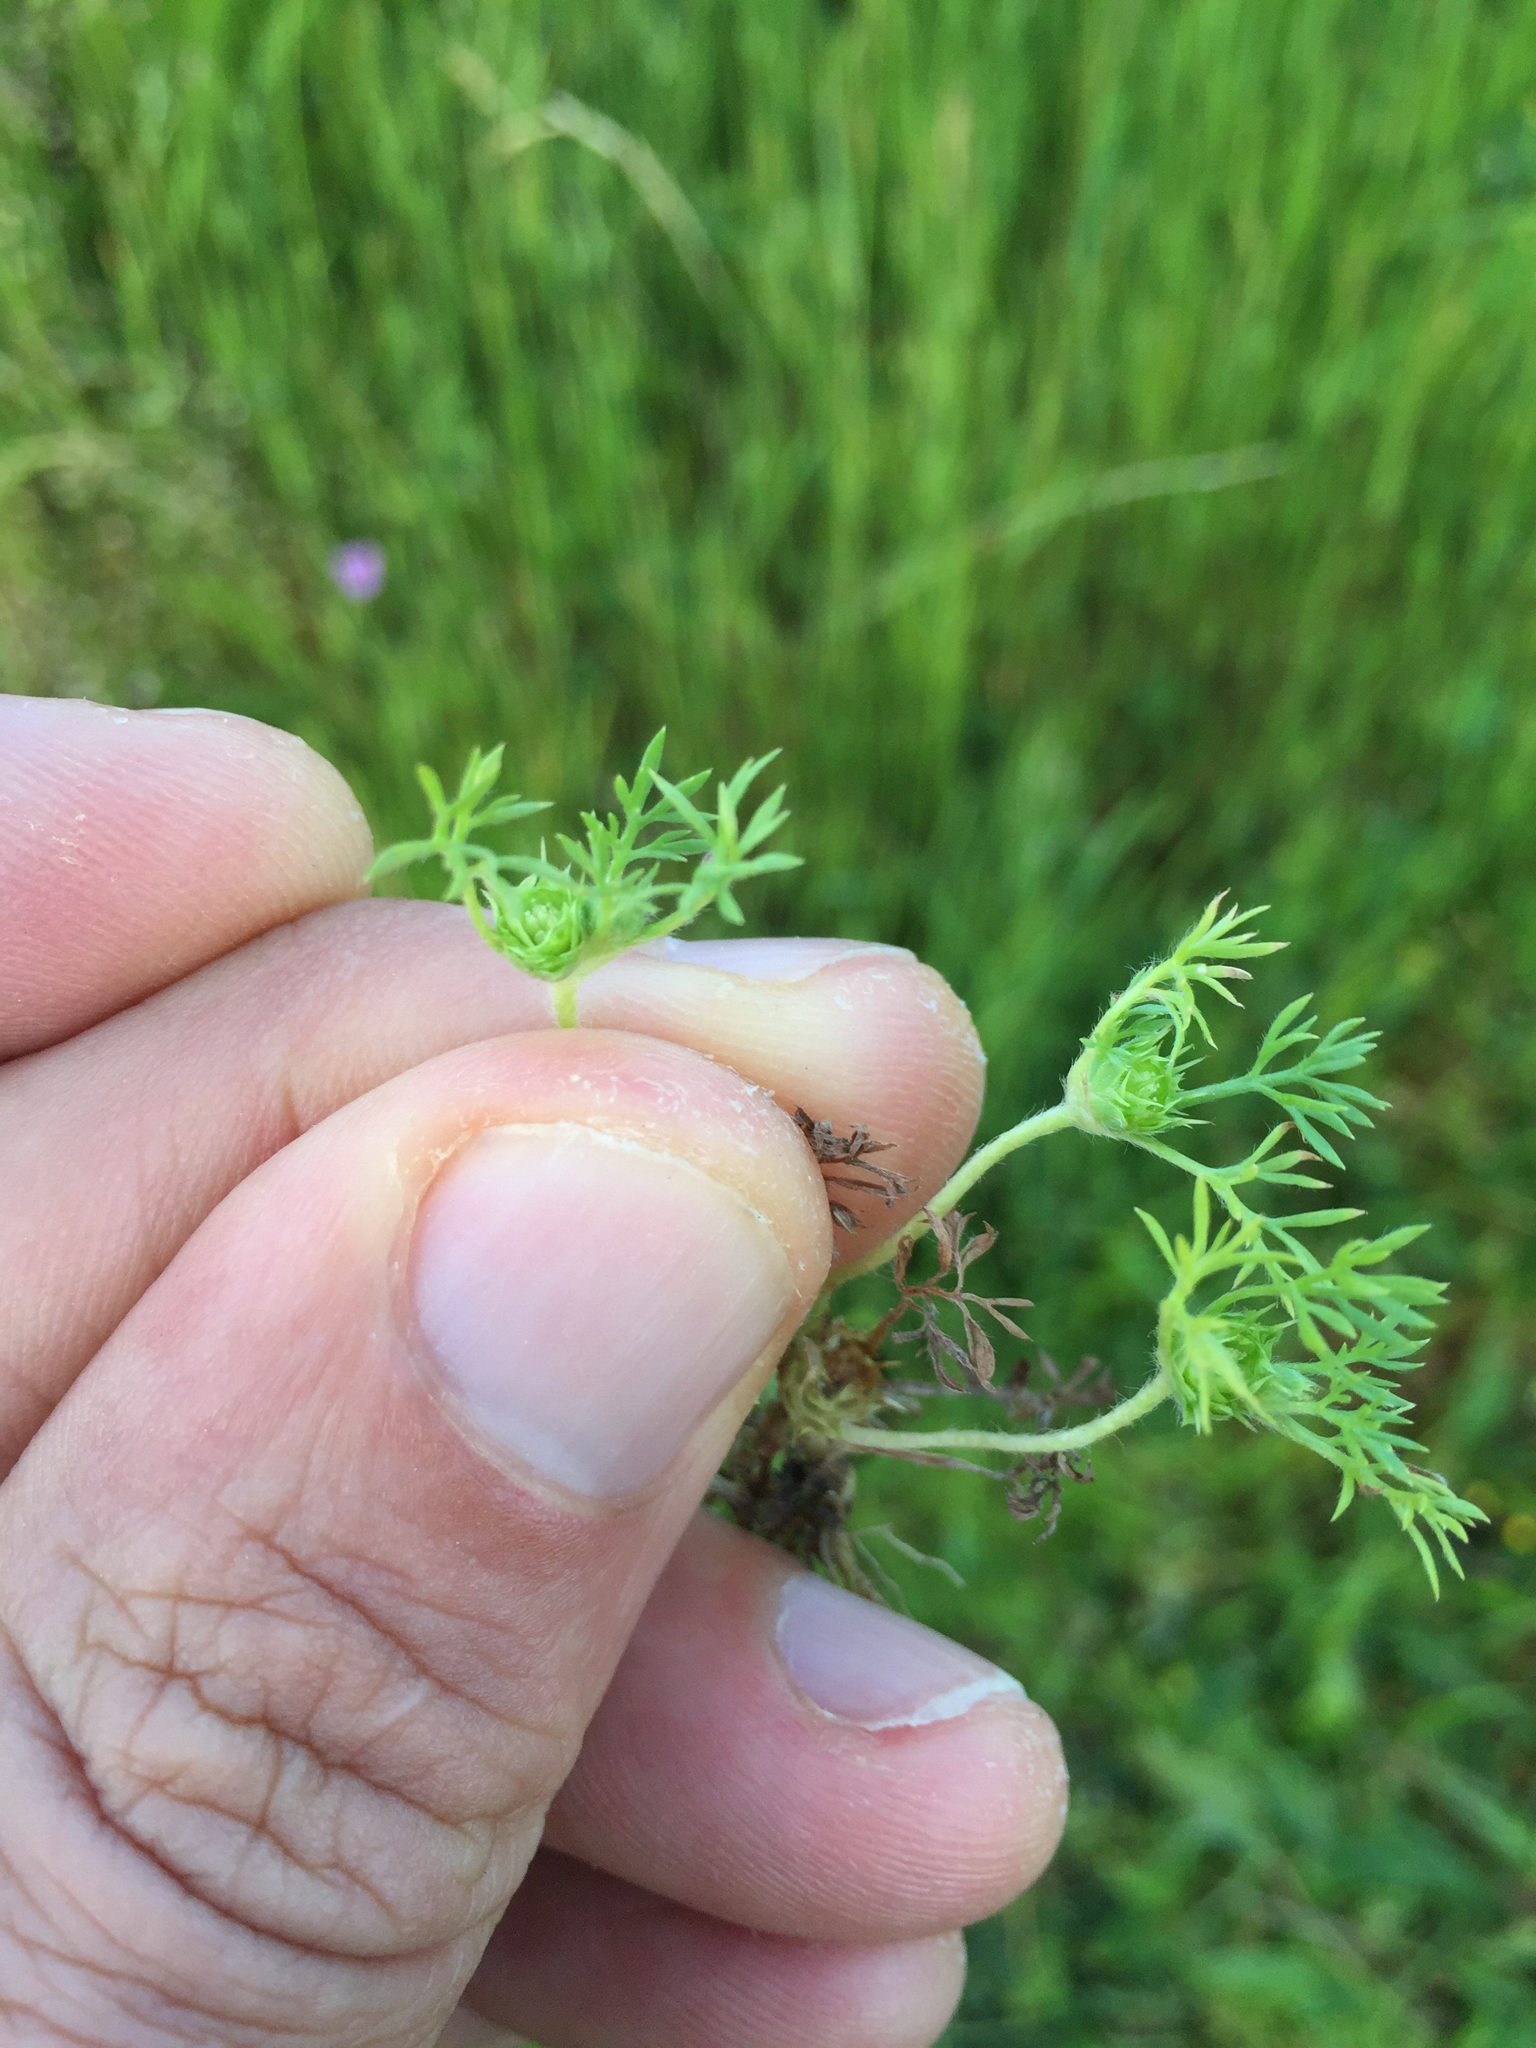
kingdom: Plantae
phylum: Tracheophyta
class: Magnoliopsida
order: Asterales
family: Asteraceae
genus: Soliva
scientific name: Soliva sessilis
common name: Field burrweed
